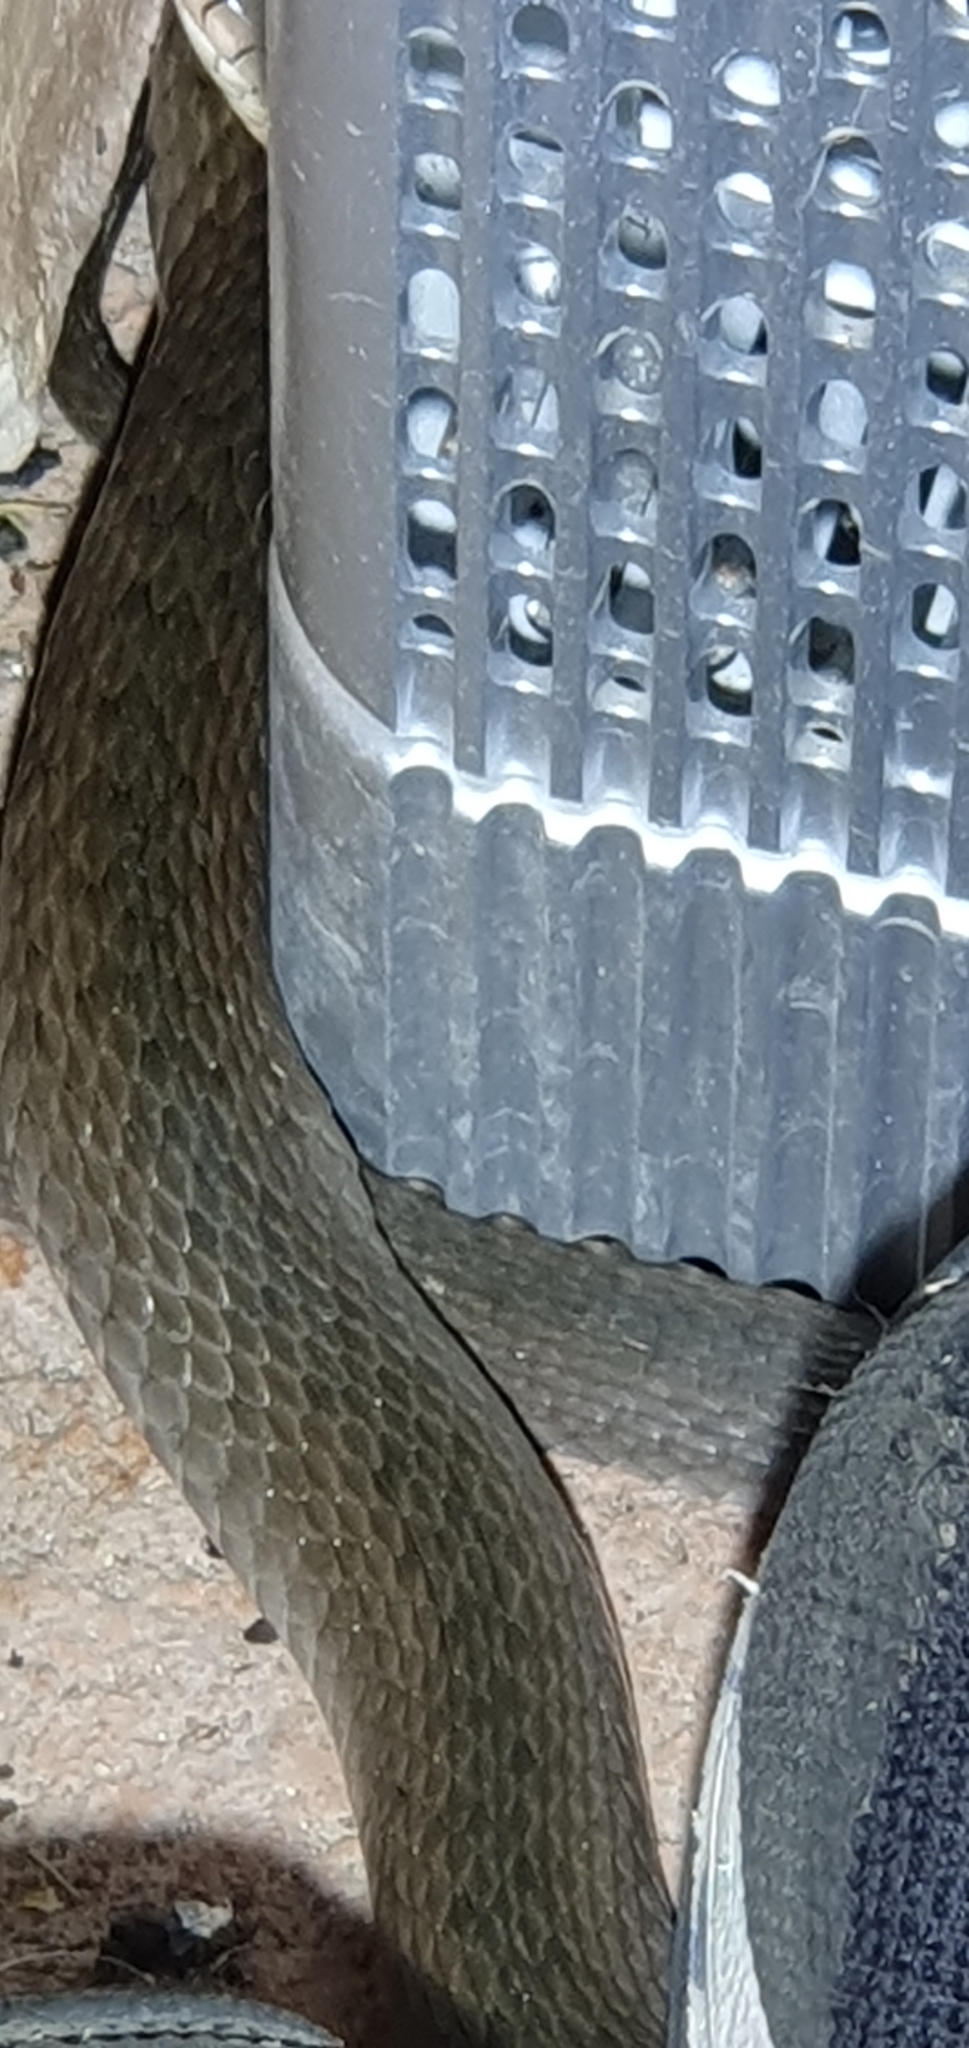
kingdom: Animalia
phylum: Chordata
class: Squamata
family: Colubridae
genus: Tropidonophis
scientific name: Tropidonophis mairii
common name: Common keelback
